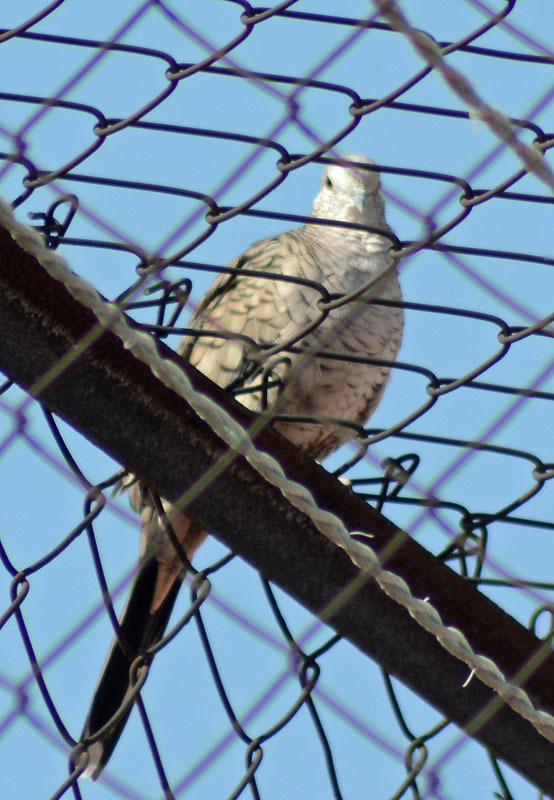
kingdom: Animalia
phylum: Chordata
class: Aves
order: Columbiformes
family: Columbidae
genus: Columbina
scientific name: Columbina inca
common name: Inca dove
